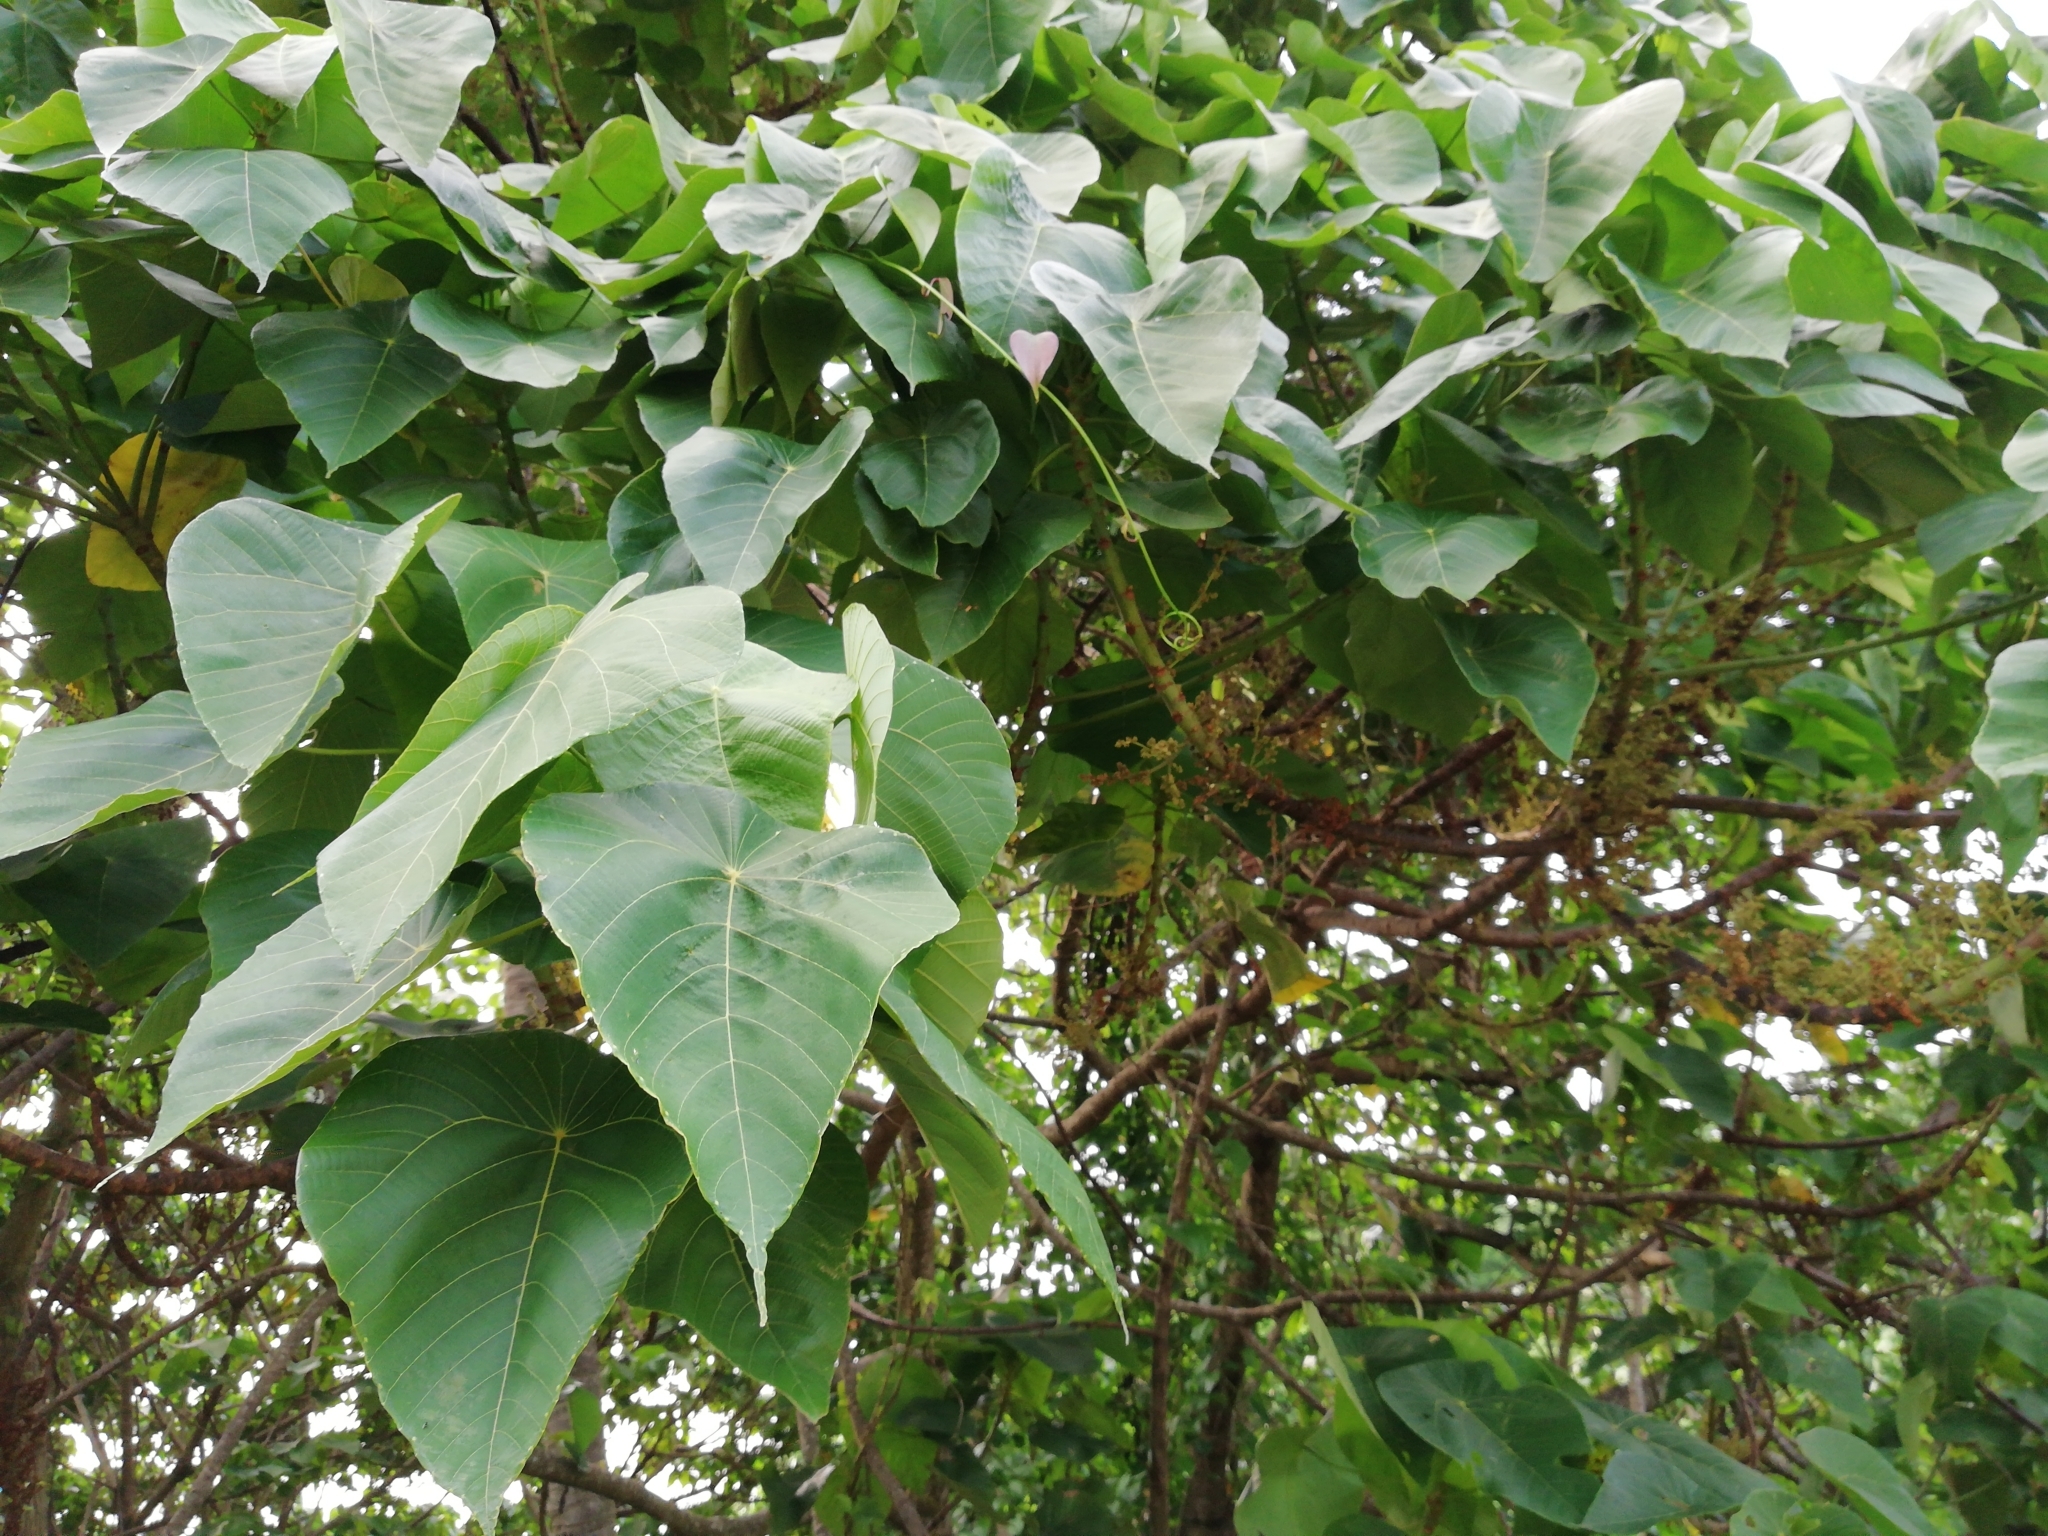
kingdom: Plantae
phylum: Tracheophyta
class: Magnoliopsida
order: Malpighiales
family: Euphorbiaceae
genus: Macaranga
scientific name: Macaranga peltata
